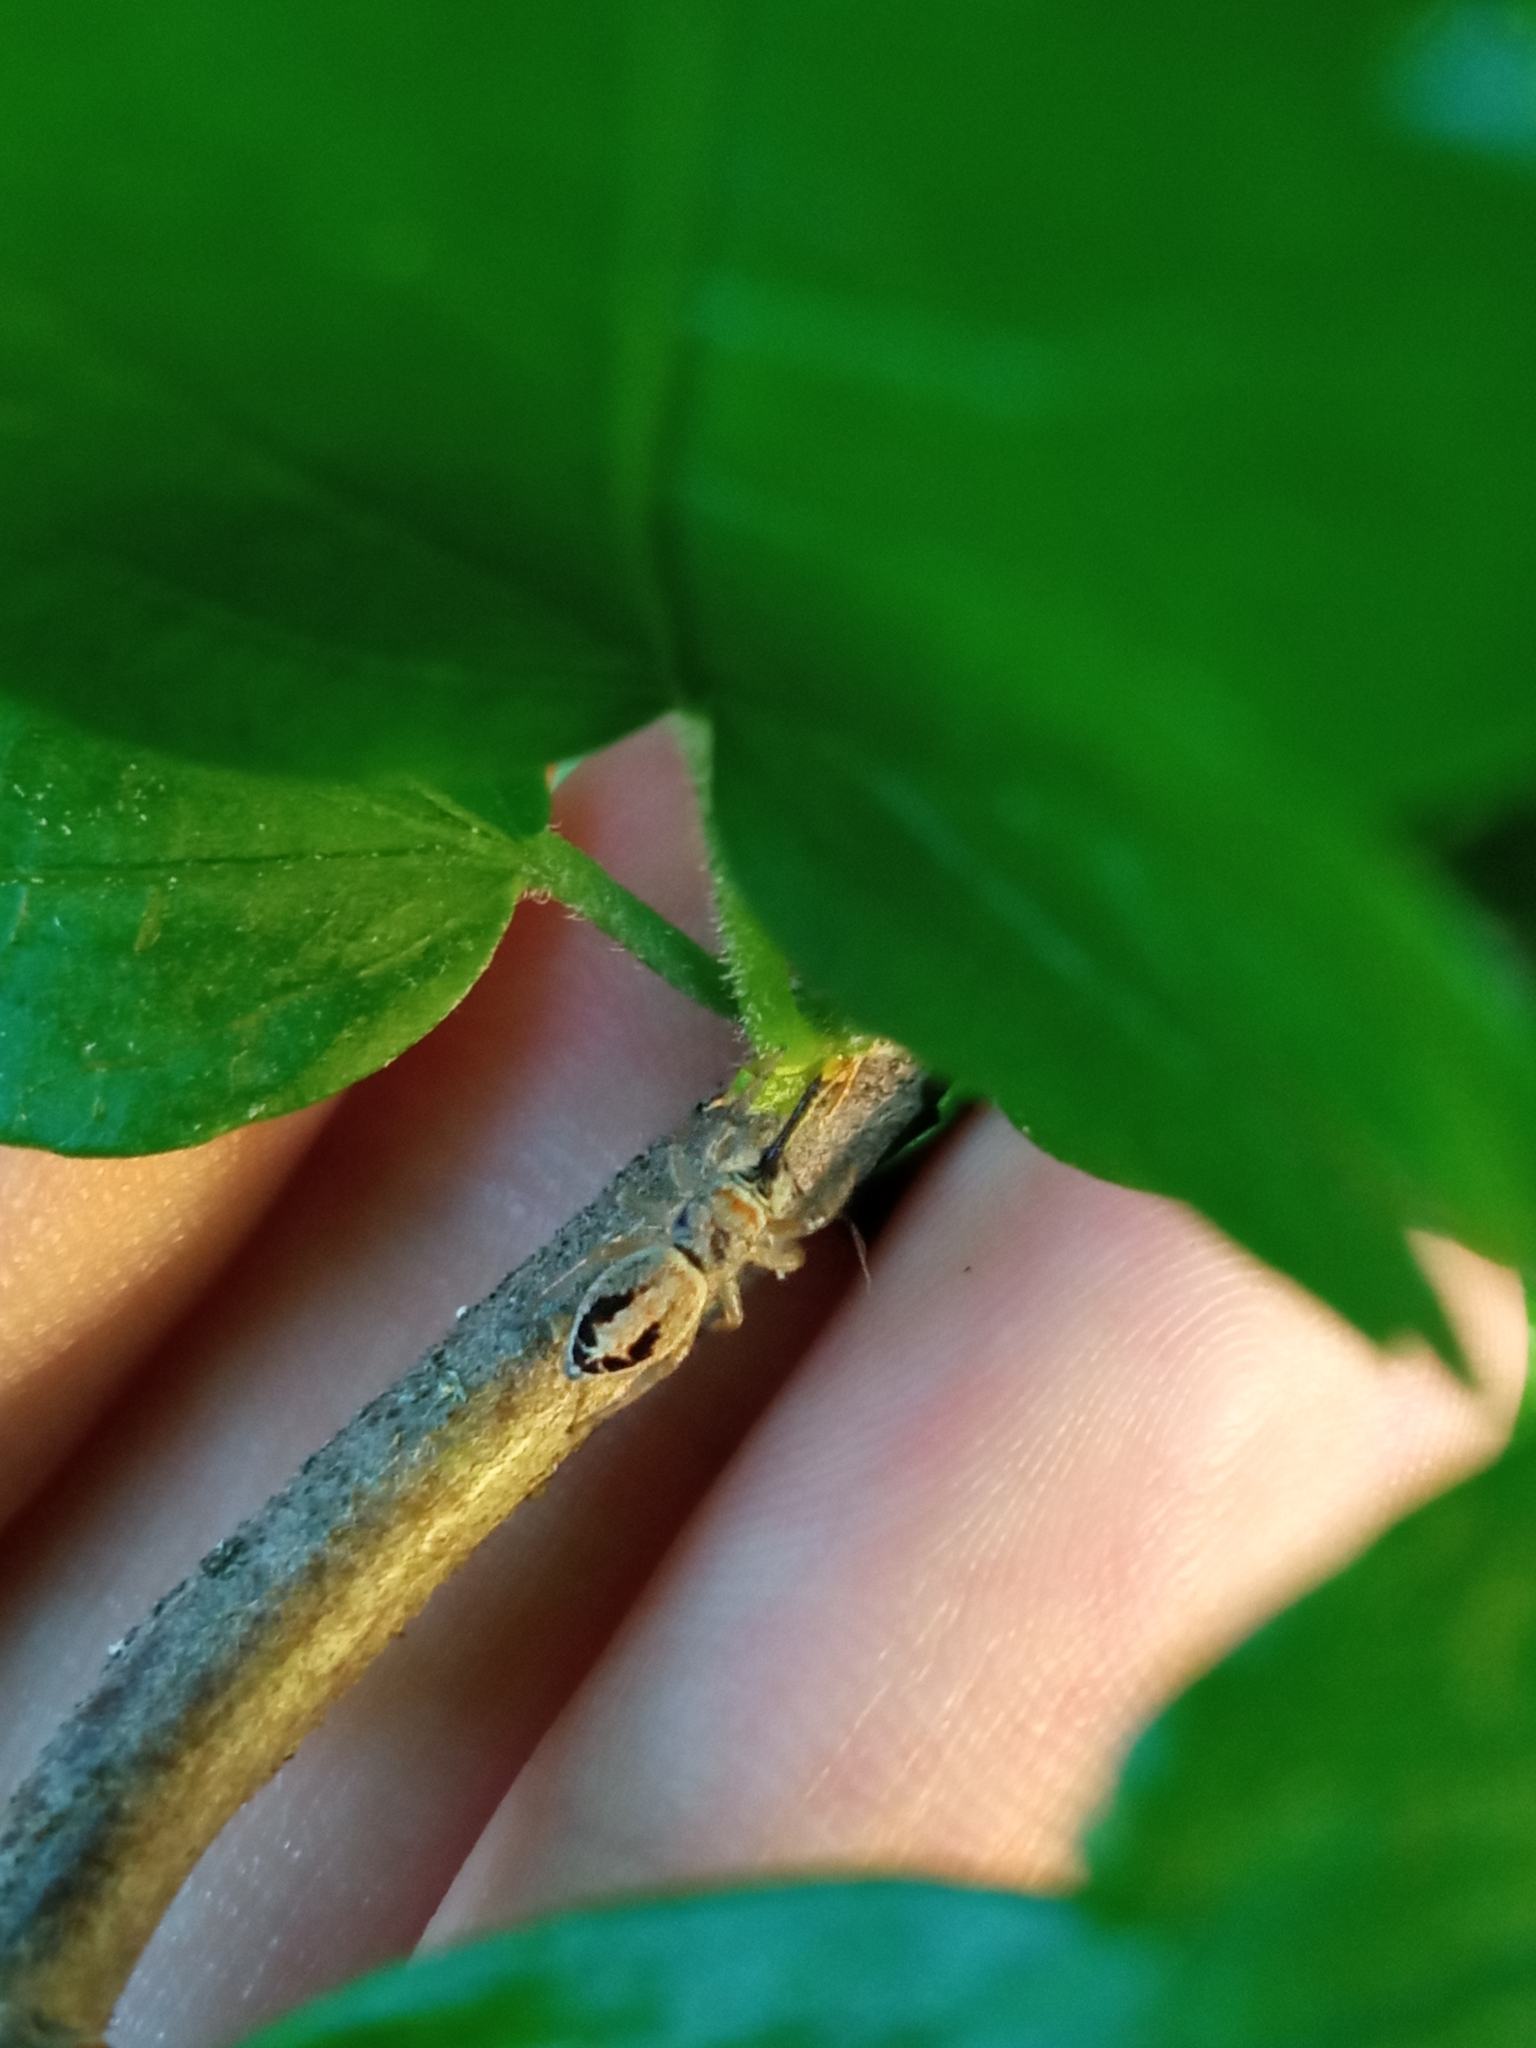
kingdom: Animalia
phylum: Arthropoda
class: Arachnida
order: Araneae
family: Salticidae
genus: Icius
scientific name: Icius
